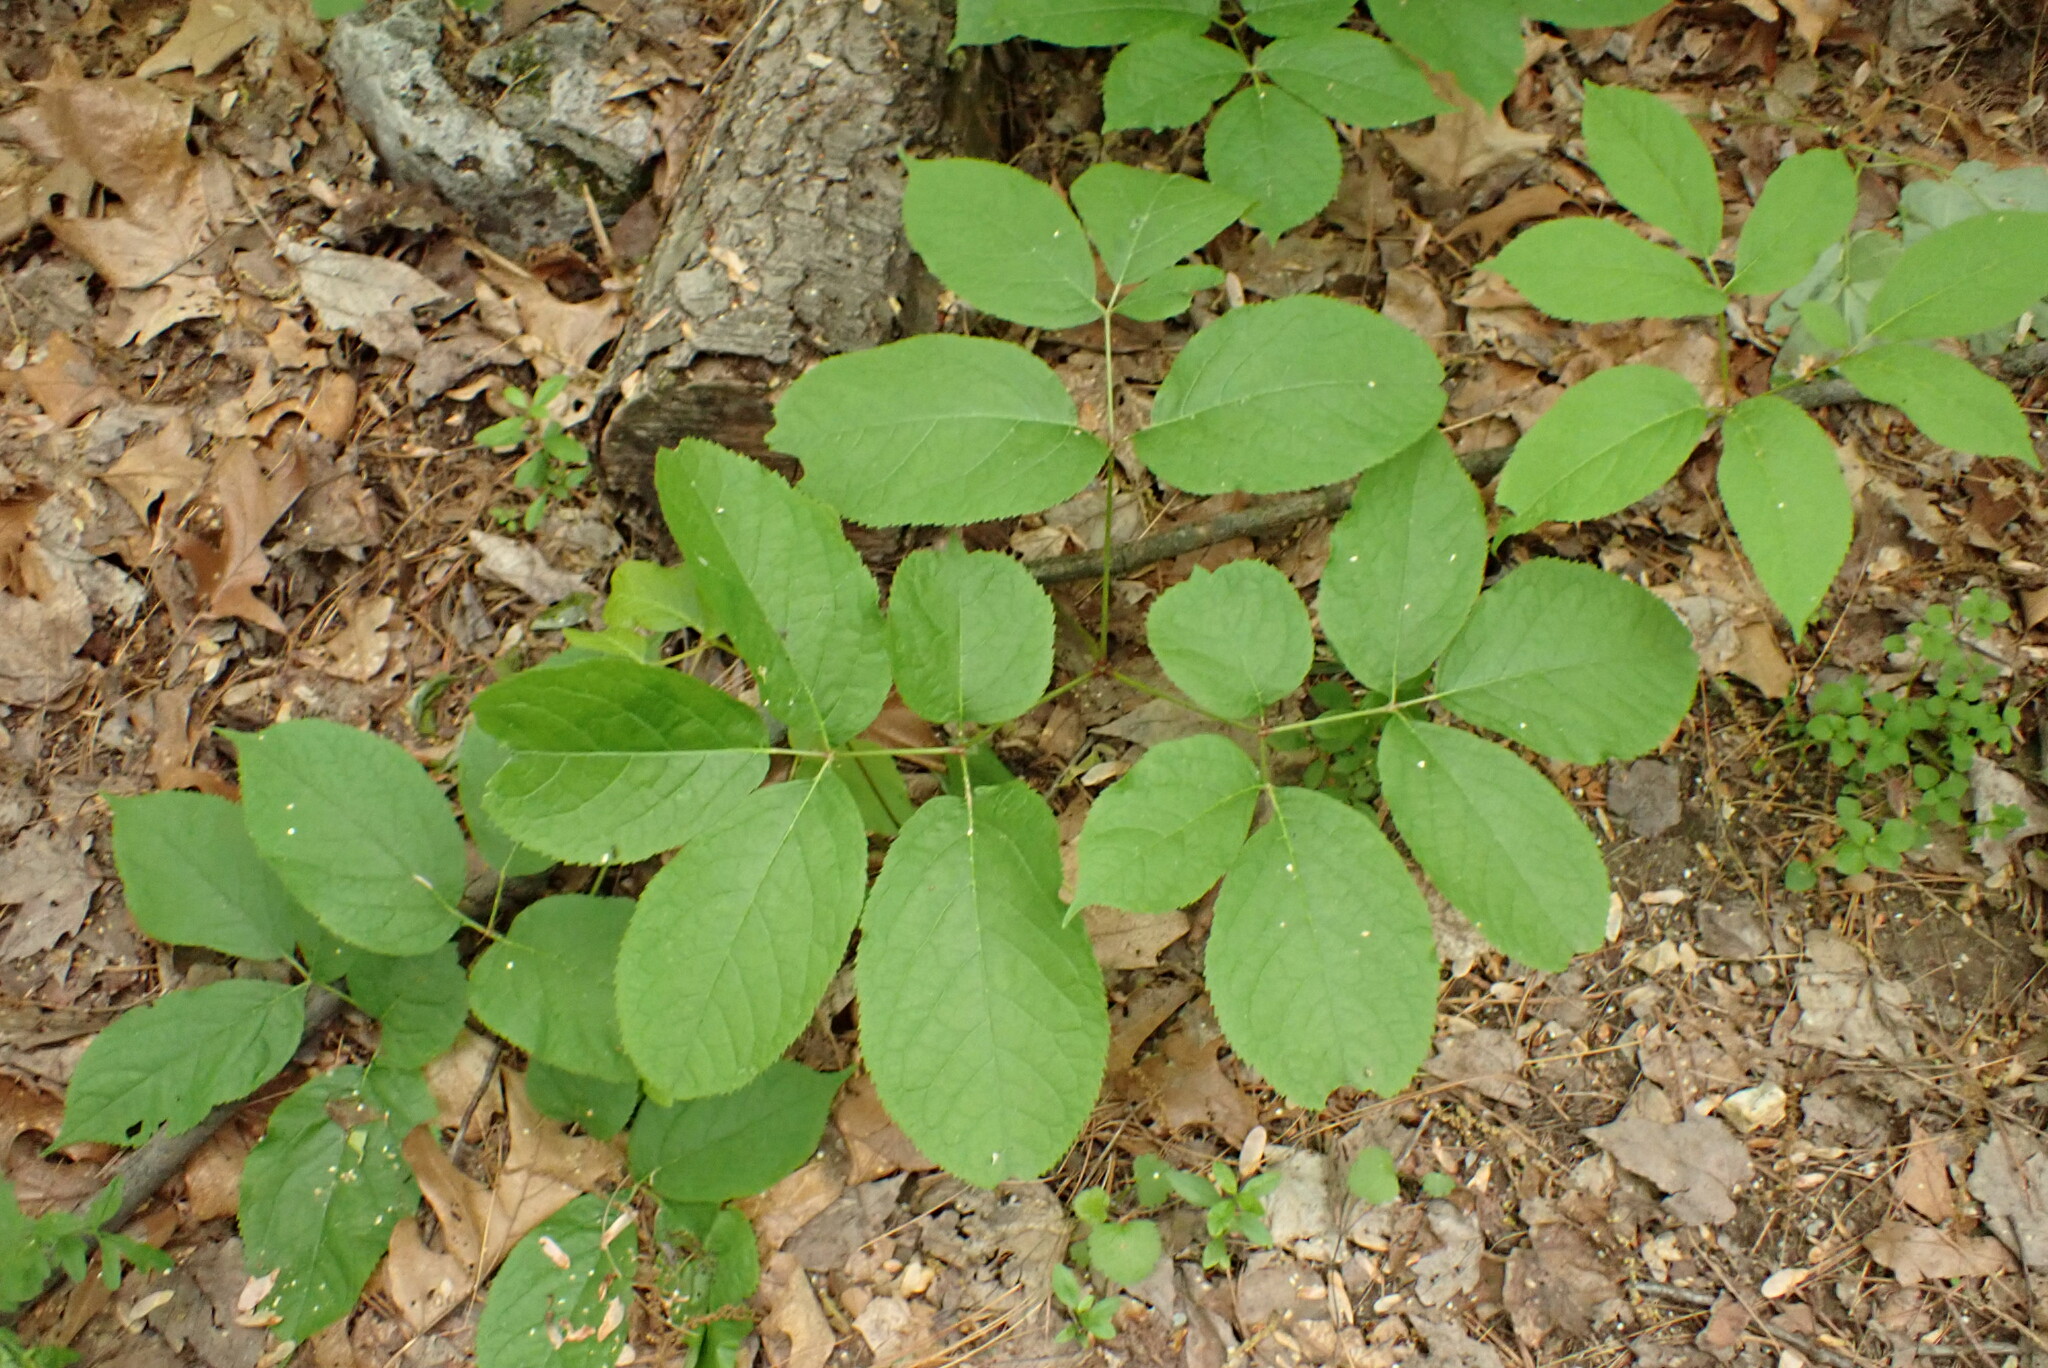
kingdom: Plantae
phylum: Tracheophyta
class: Magnoliopsida
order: Apiales
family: Araliaceae
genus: Aralia
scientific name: Aralia nudicaulis
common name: Wild sarsaparilla
